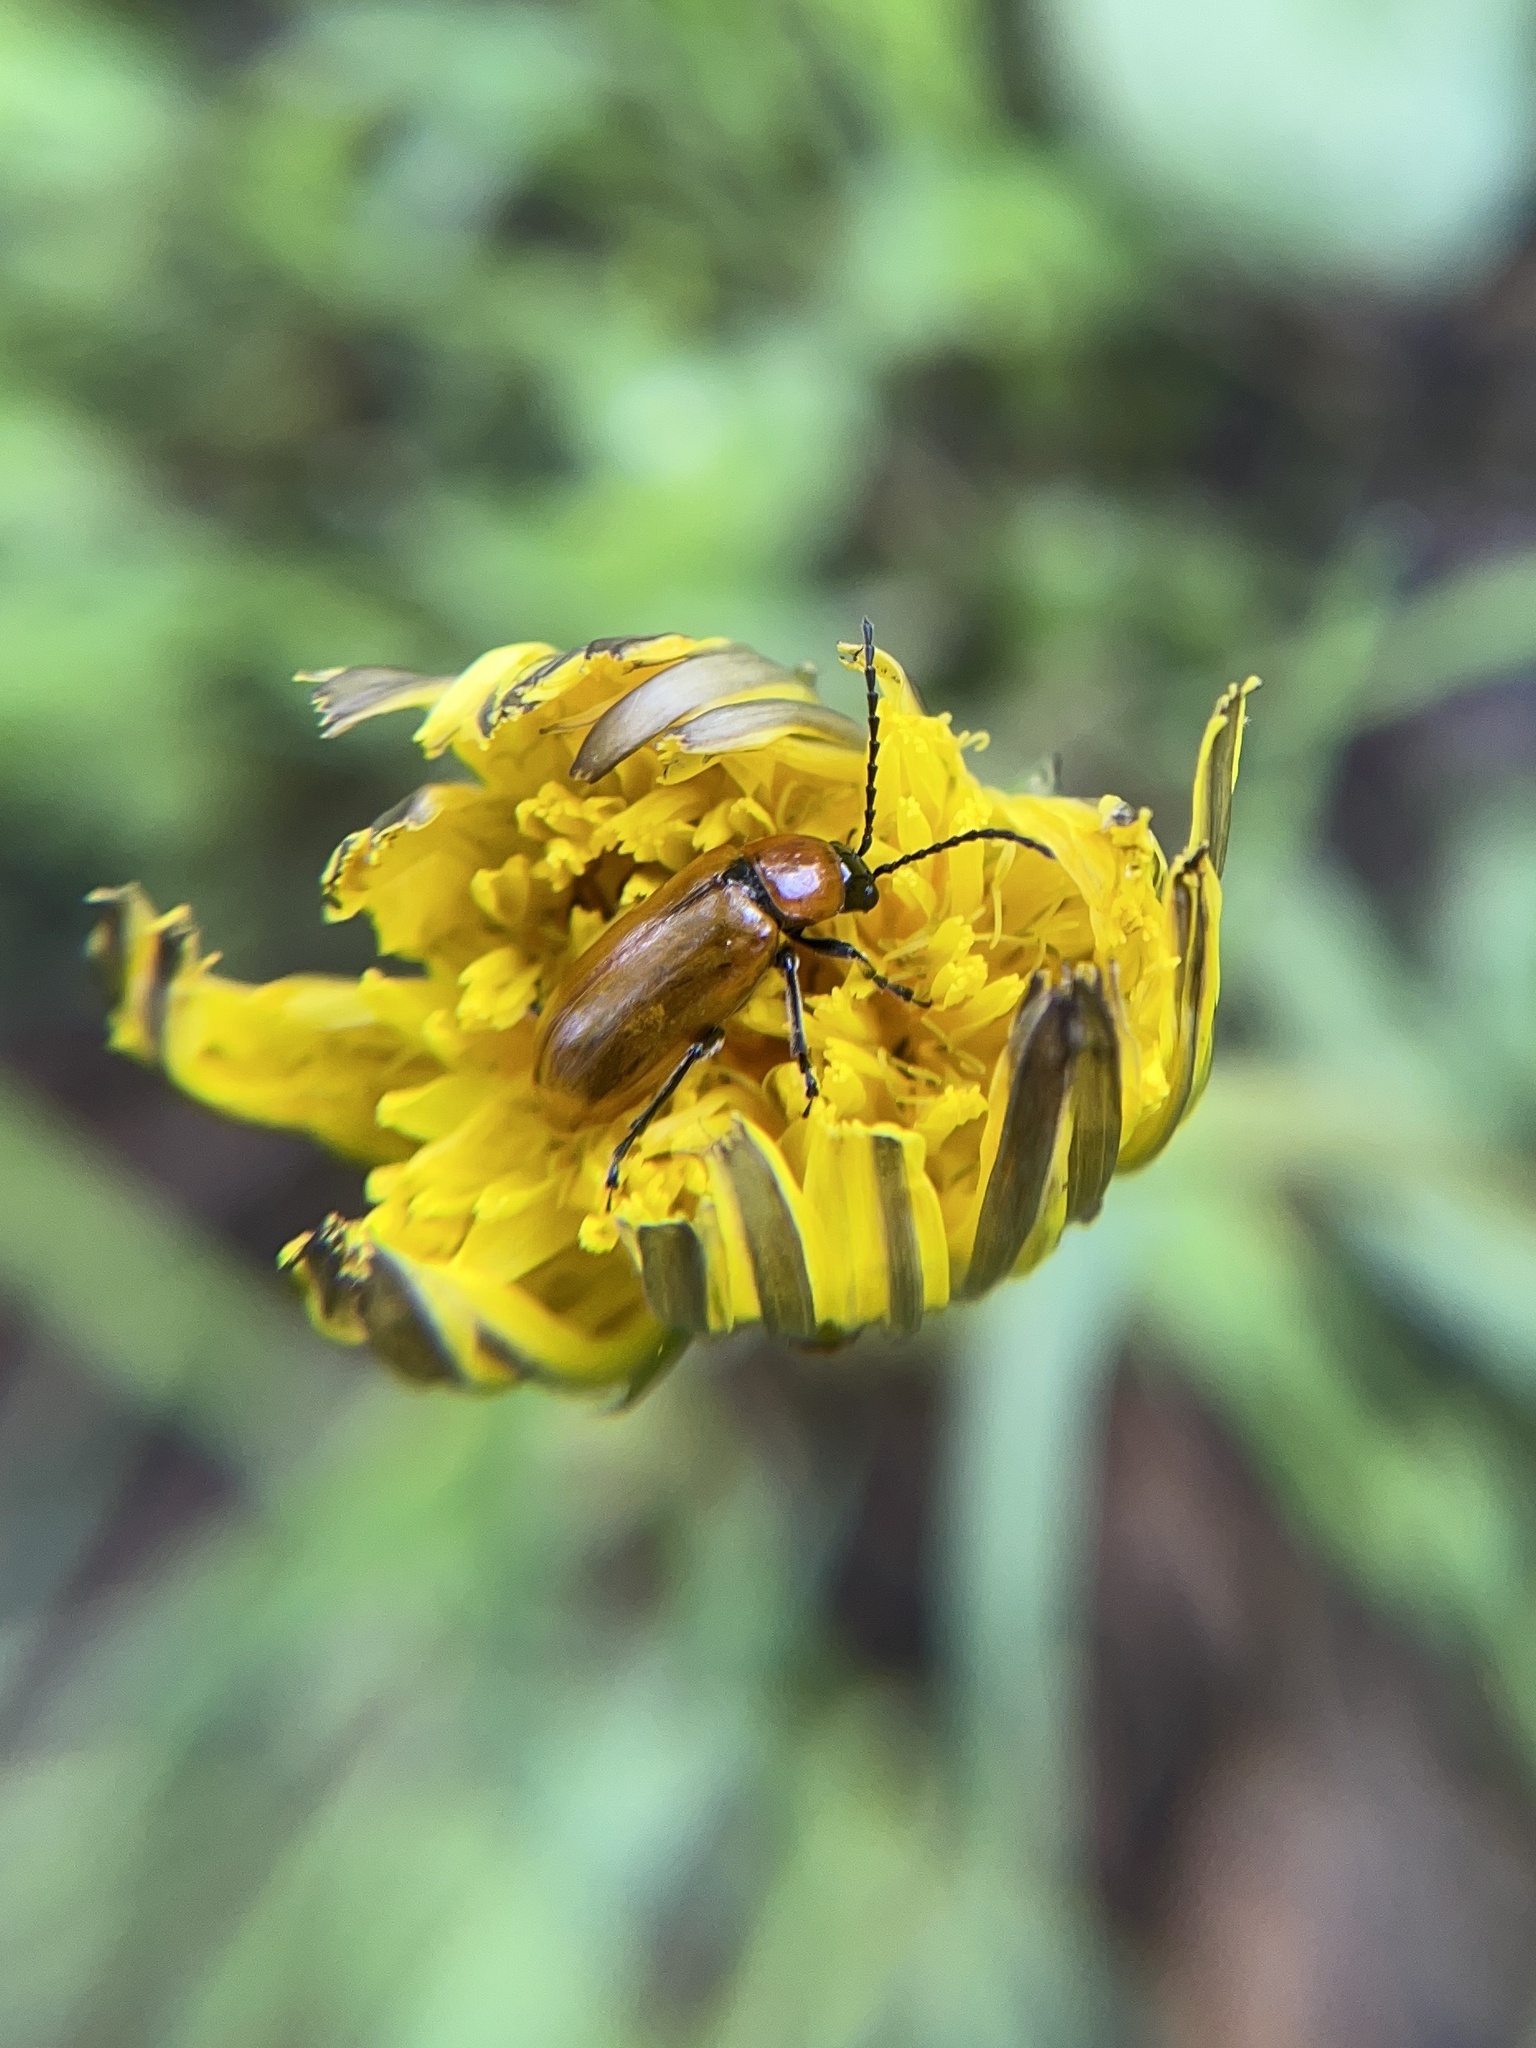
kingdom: Animalia
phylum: Arthropoda
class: Insecta
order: Coleoptera
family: Chrysomelidae
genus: Exosoma
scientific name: Exosoma lusitanicum
